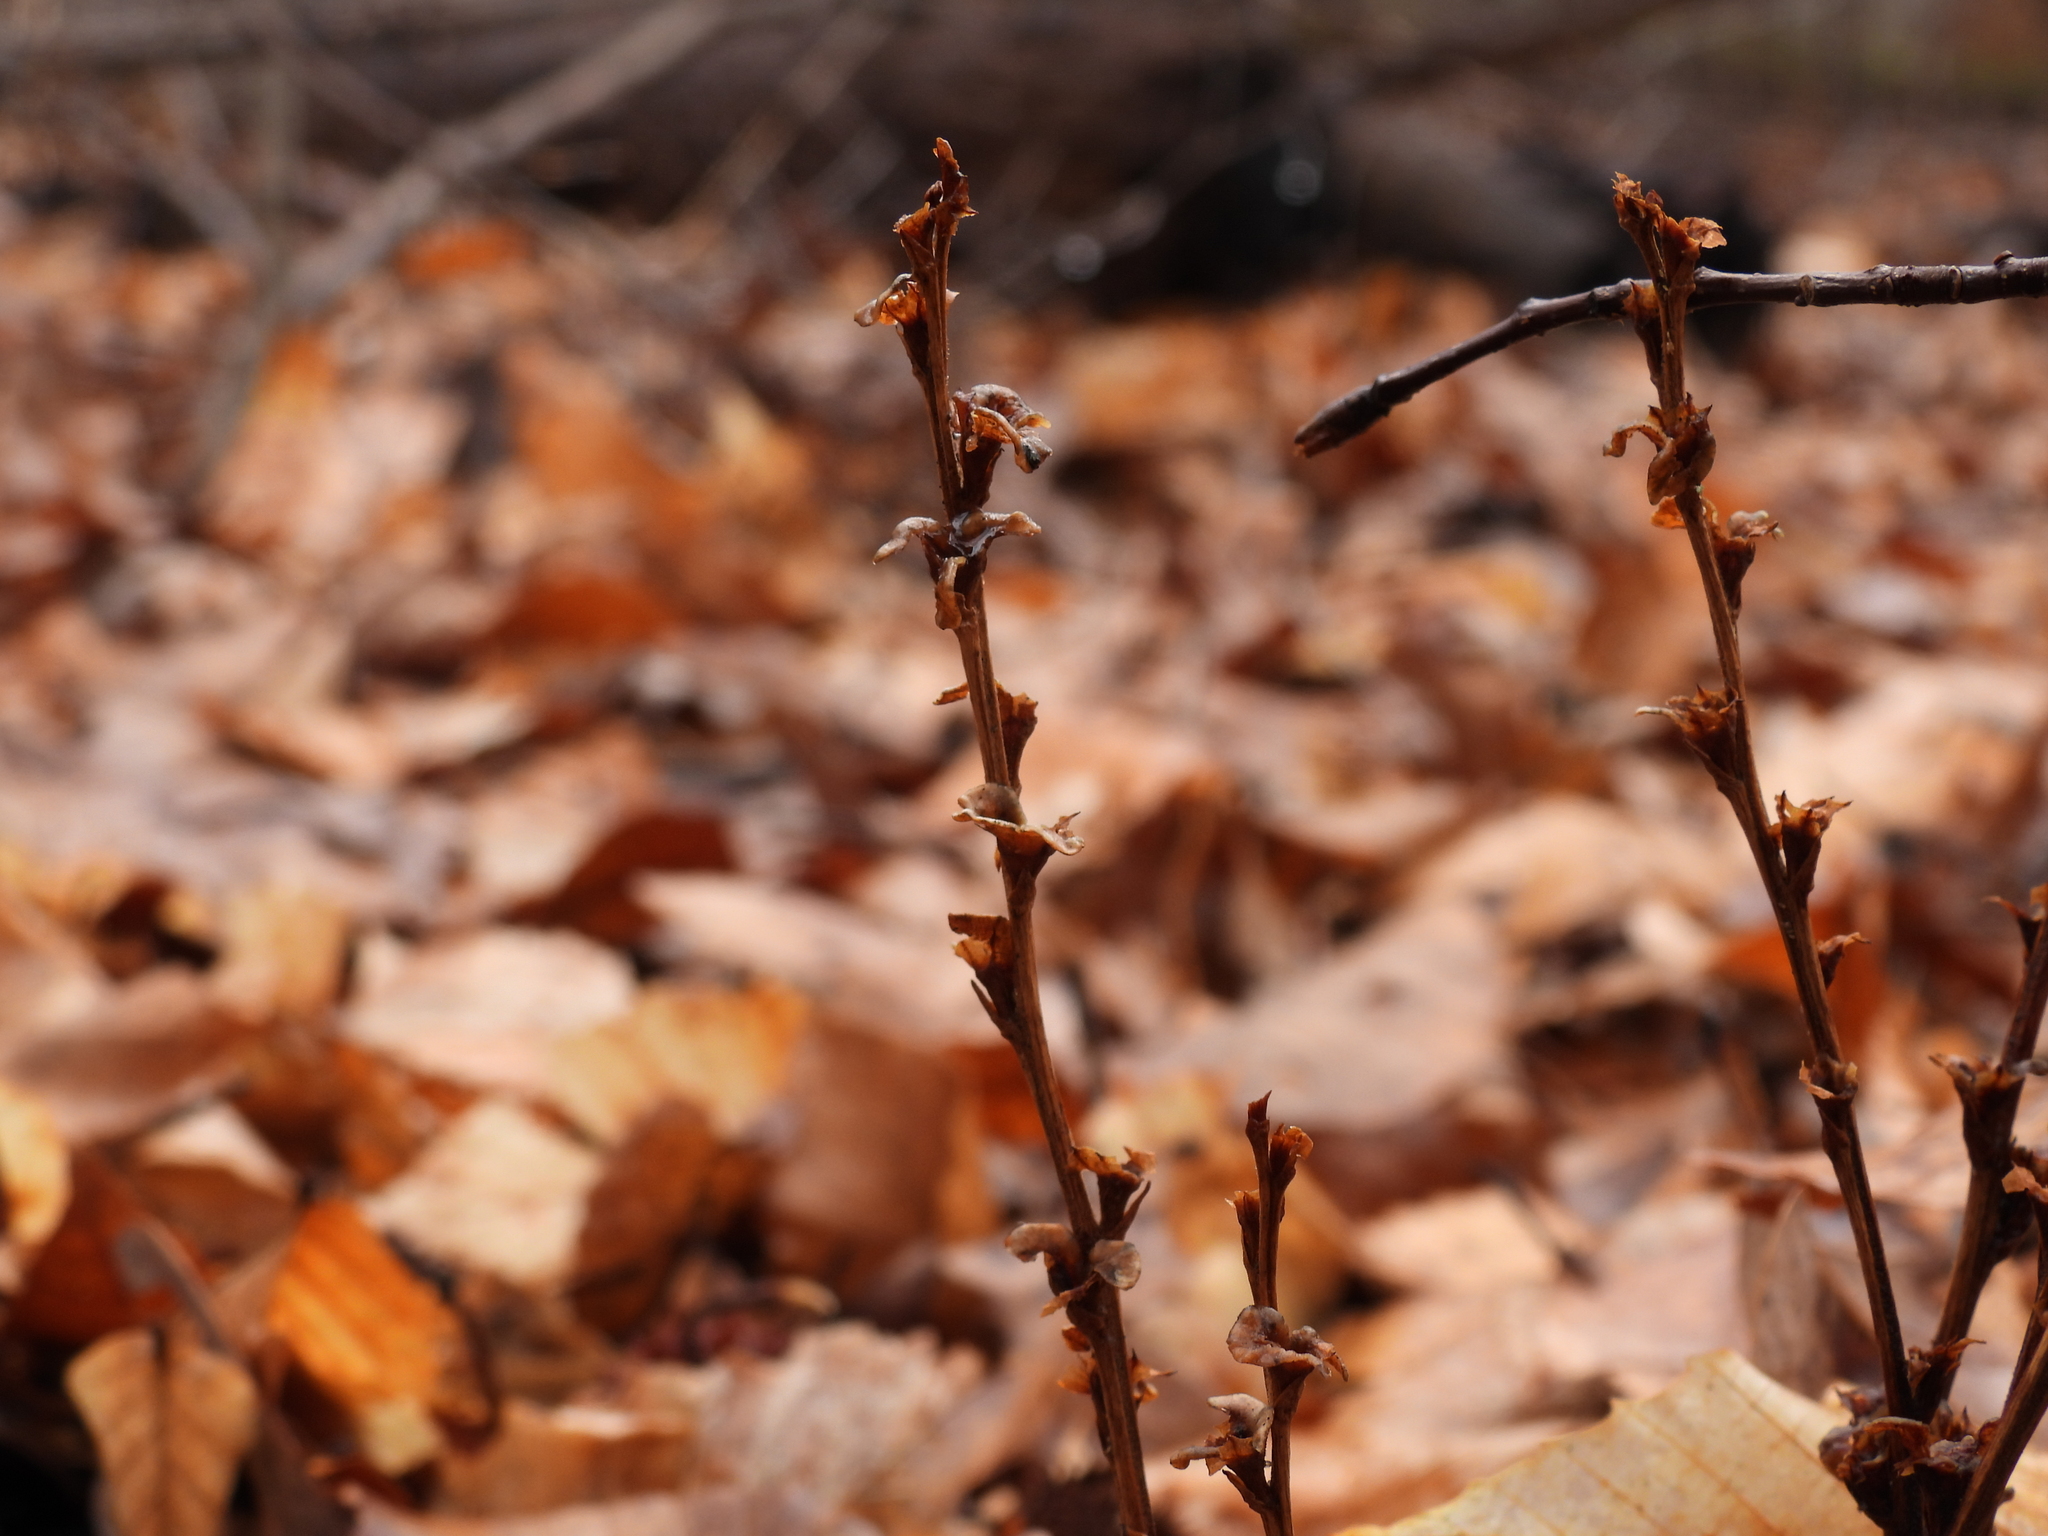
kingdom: Plantae
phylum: Tracheophyta
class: Magnoliopsida
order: Lamiales
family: Orobanchaceae
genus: Epifagus
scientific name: Epifagus virginiana
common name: Beechdrops
